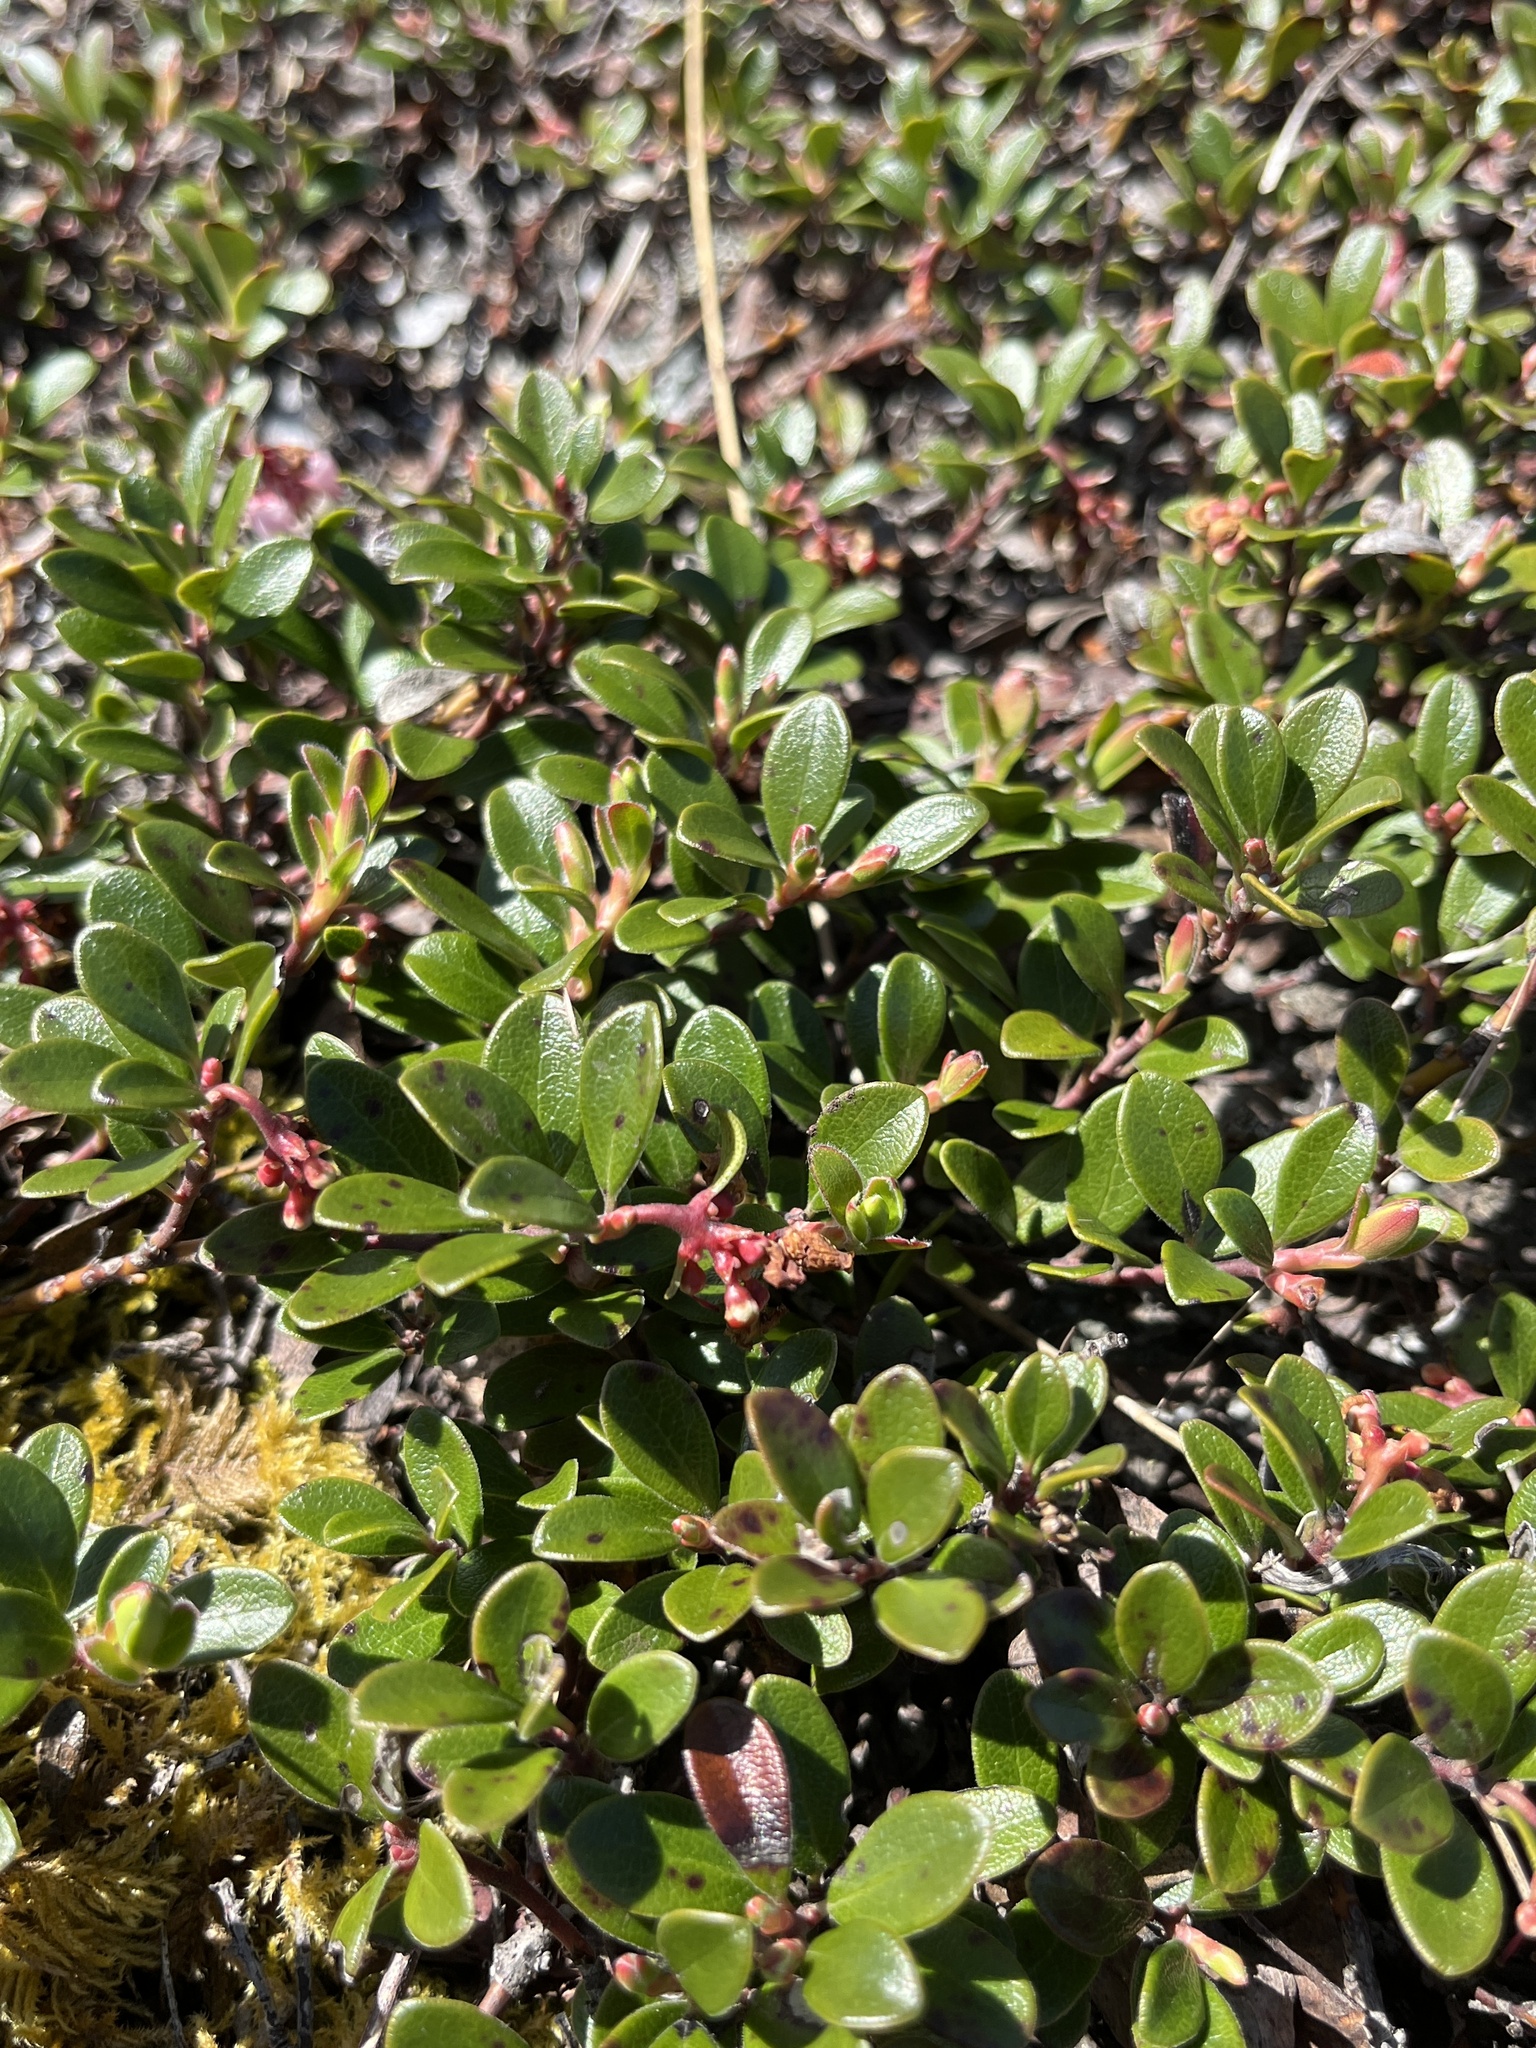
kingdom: Plantae
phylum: Tracheophyta
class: Magnoliopsida
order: Ericales
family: Ericaceae
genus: Arctostaphylos
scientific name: Arctostaphylos uva-ursi
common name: Bearberry
